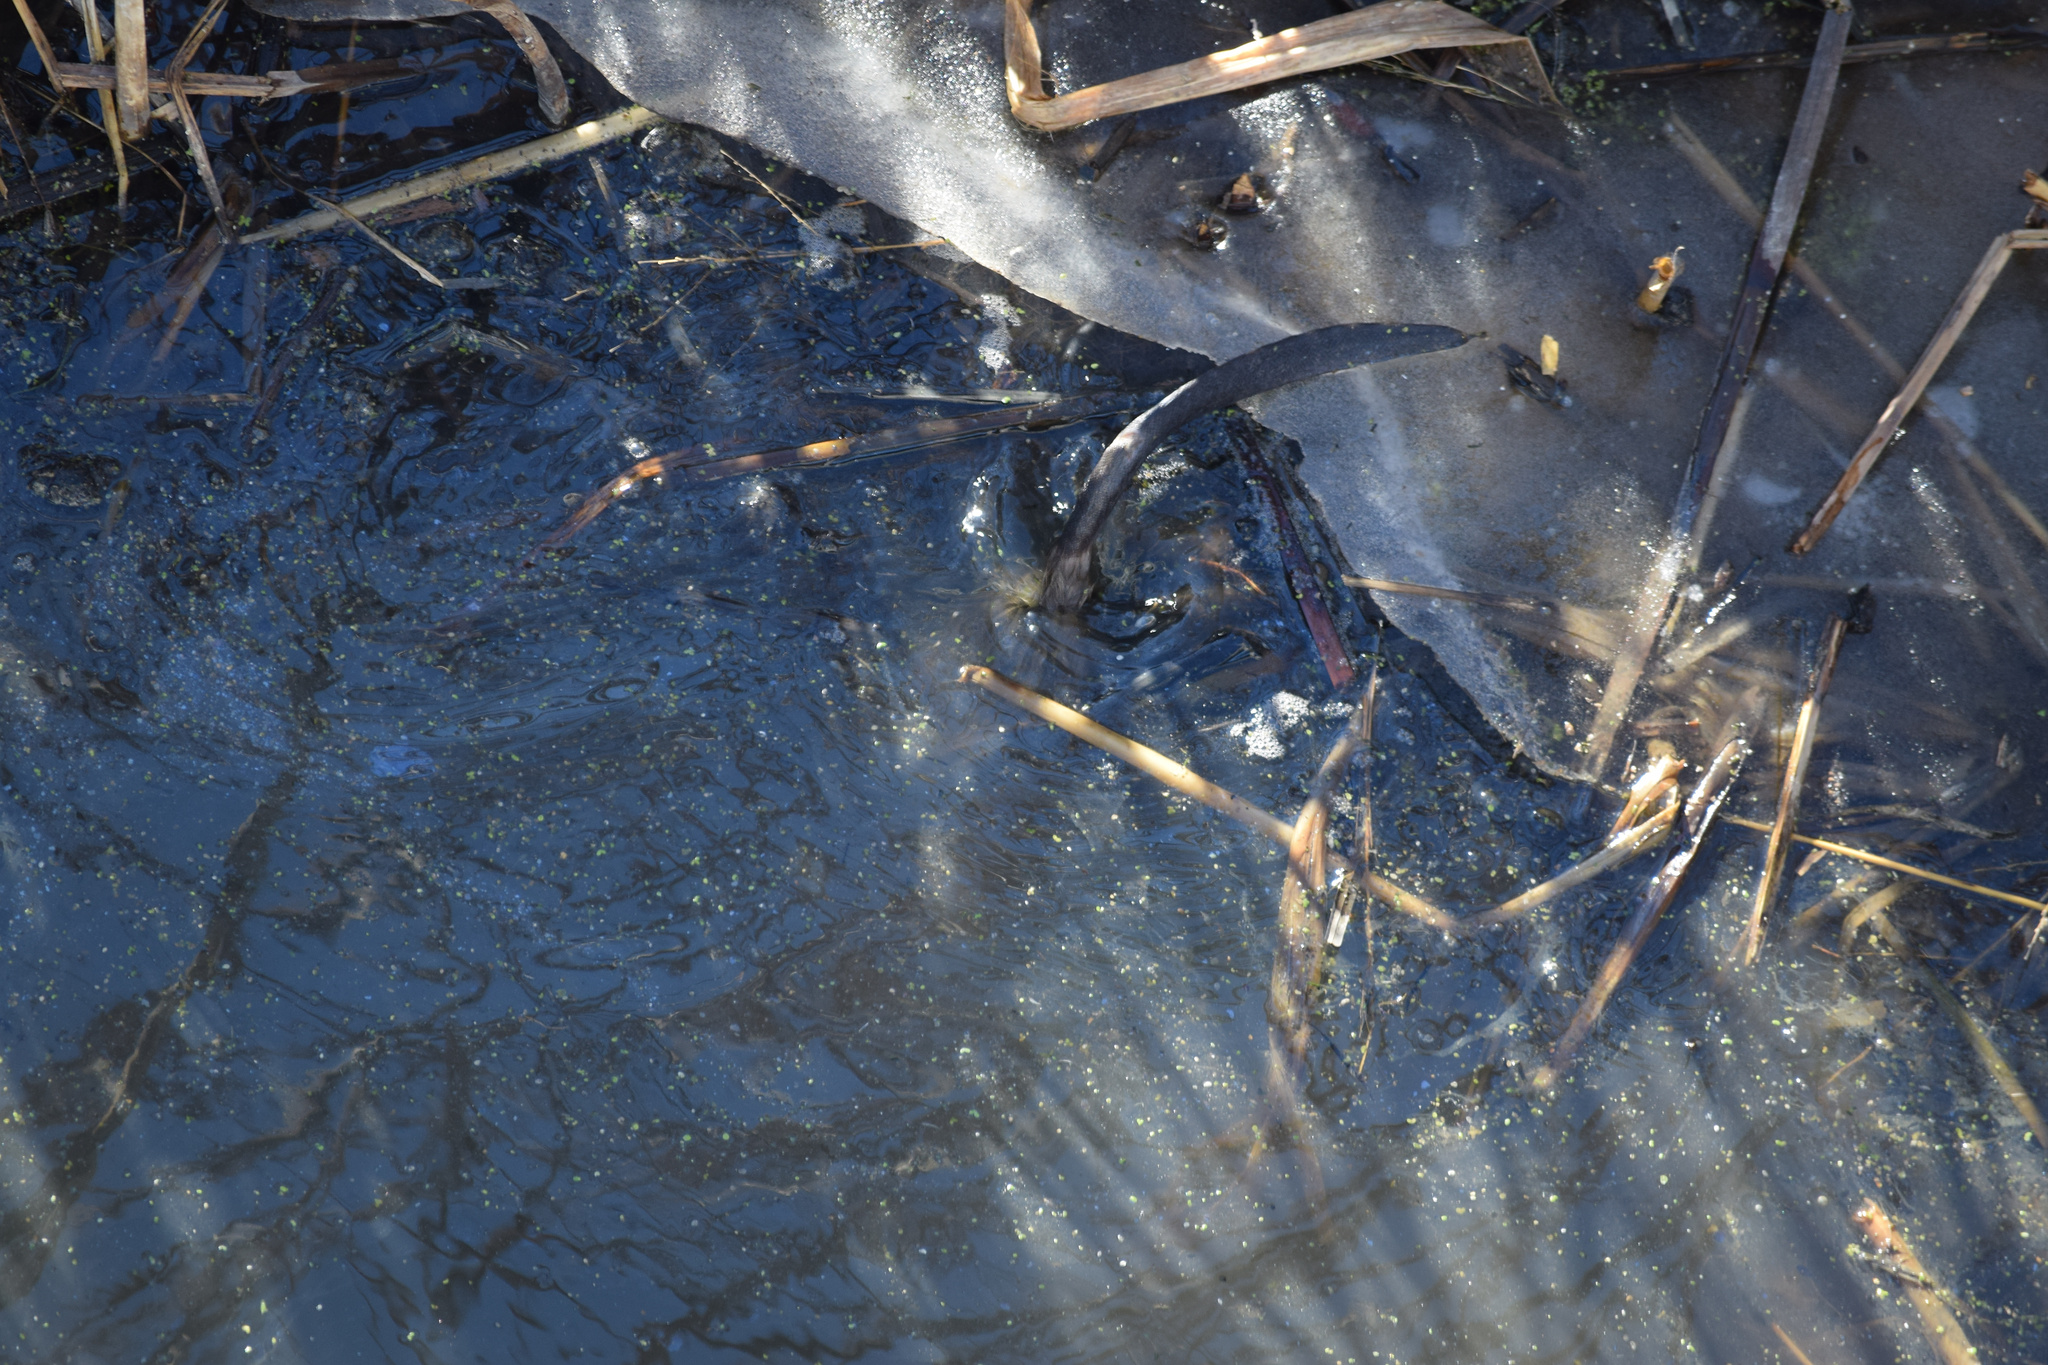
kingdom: Animalia
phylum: Chordata
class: Mammalia
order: Rodentia
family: Cricetidae
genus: Ondatra
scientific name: Ondatra zibethicus
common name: Muskrat
